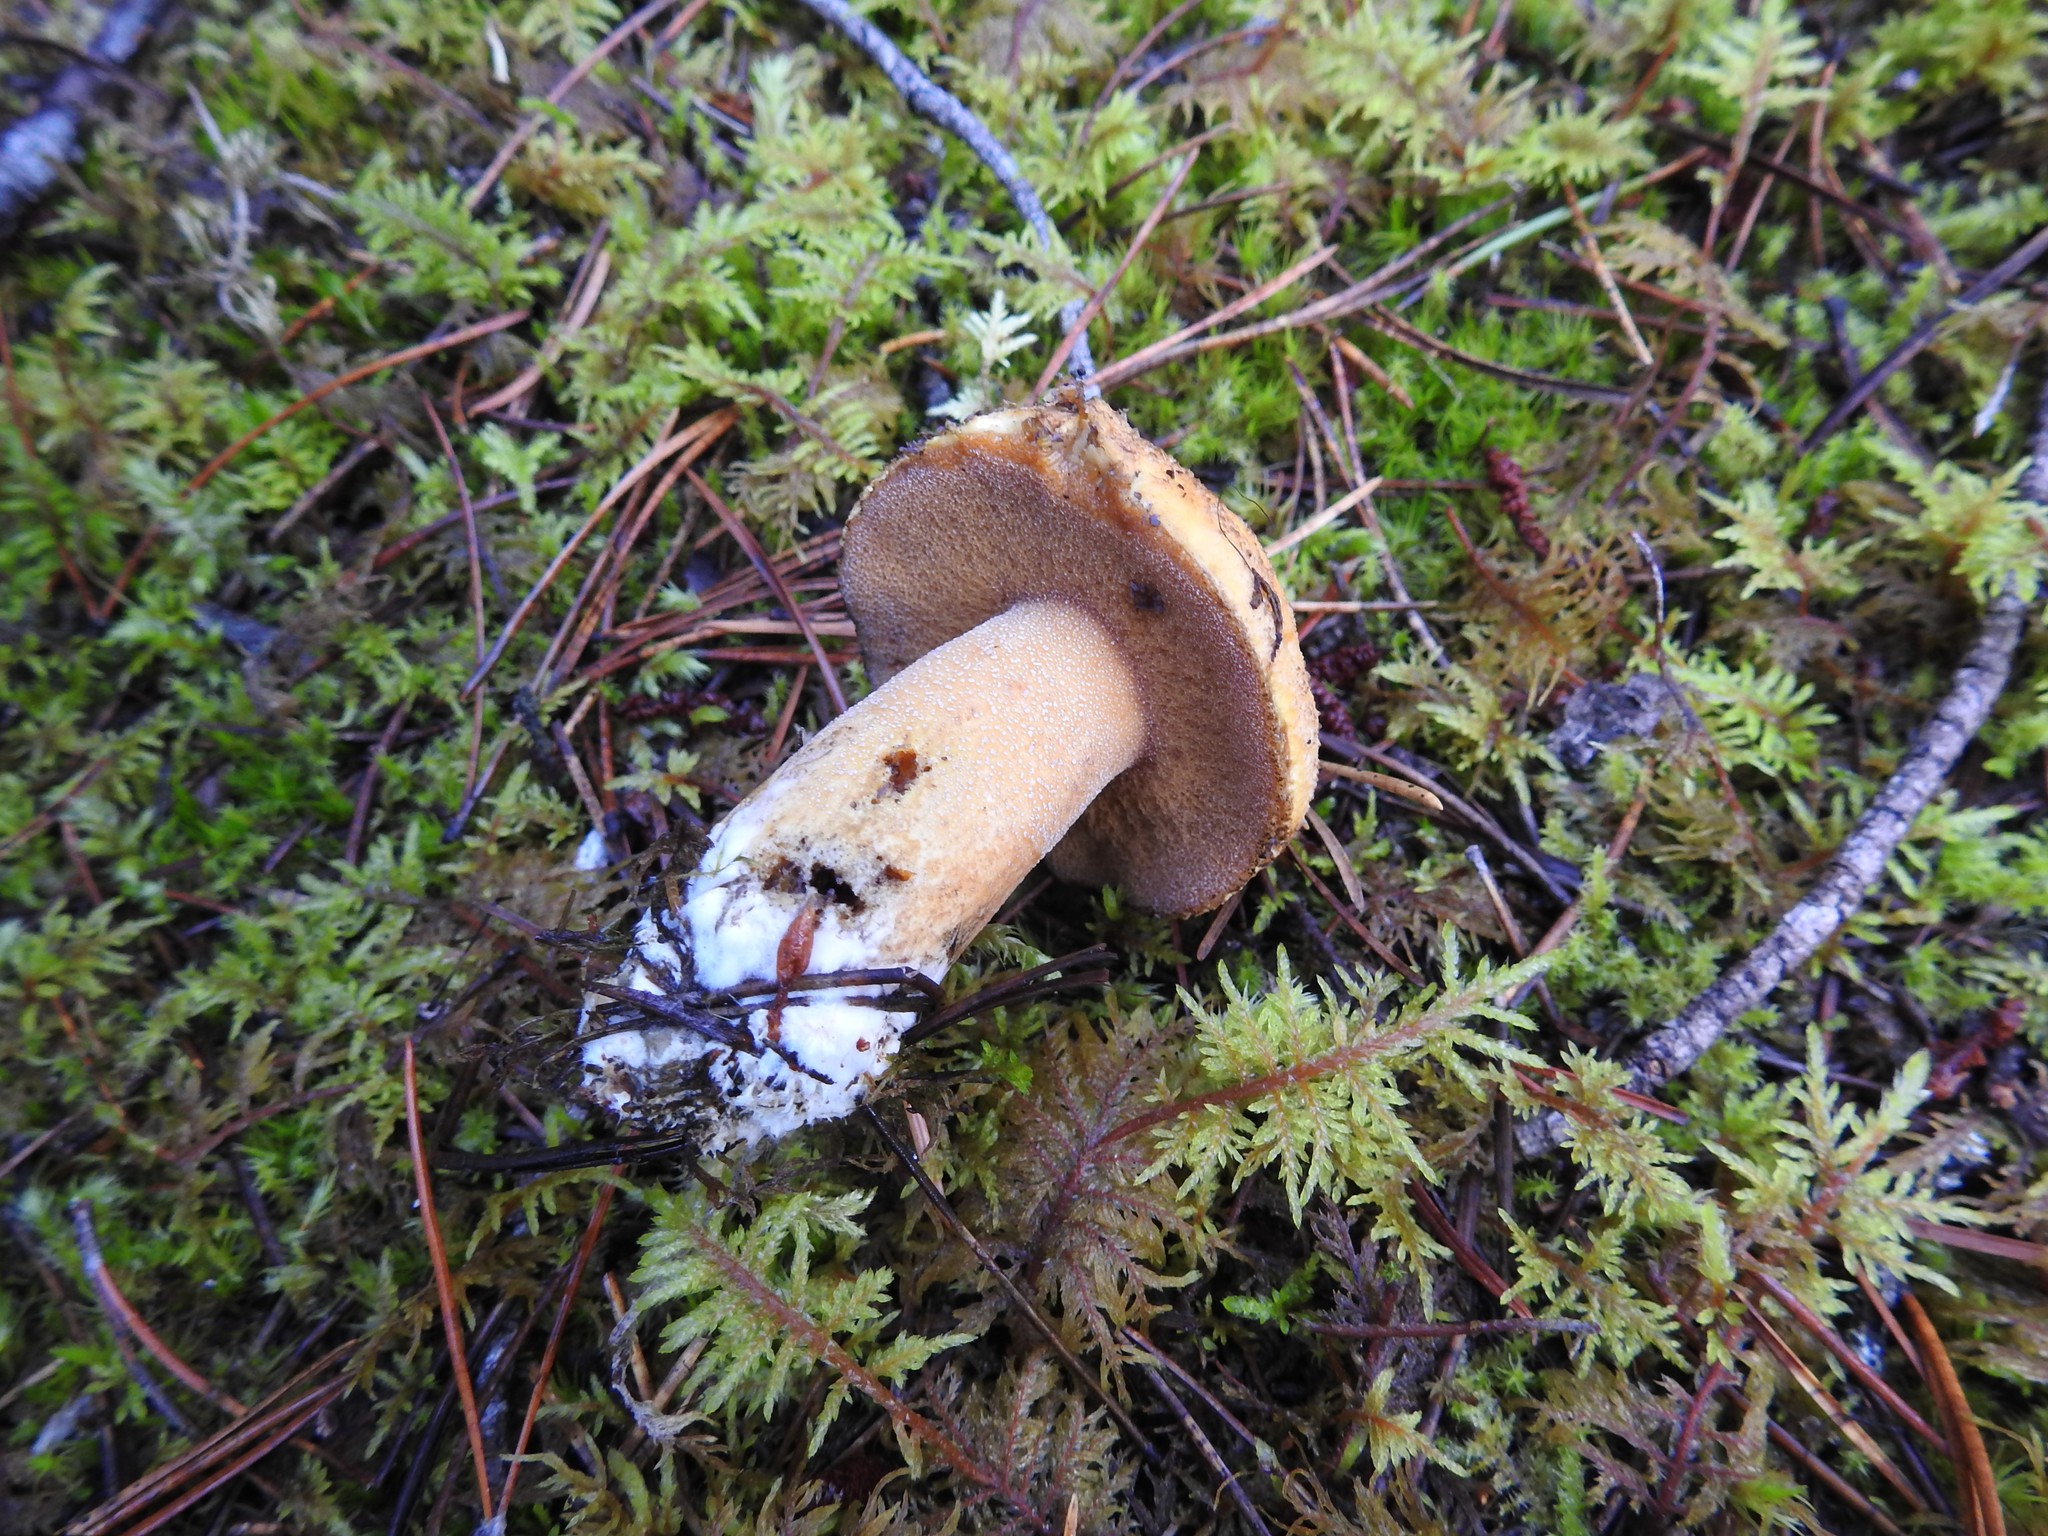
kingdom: Fungi
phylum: Basidiomycota
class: Agaricomycetes
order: Boletales
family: Suillaceae
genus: Suillus
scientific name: Suillus tomentosus
